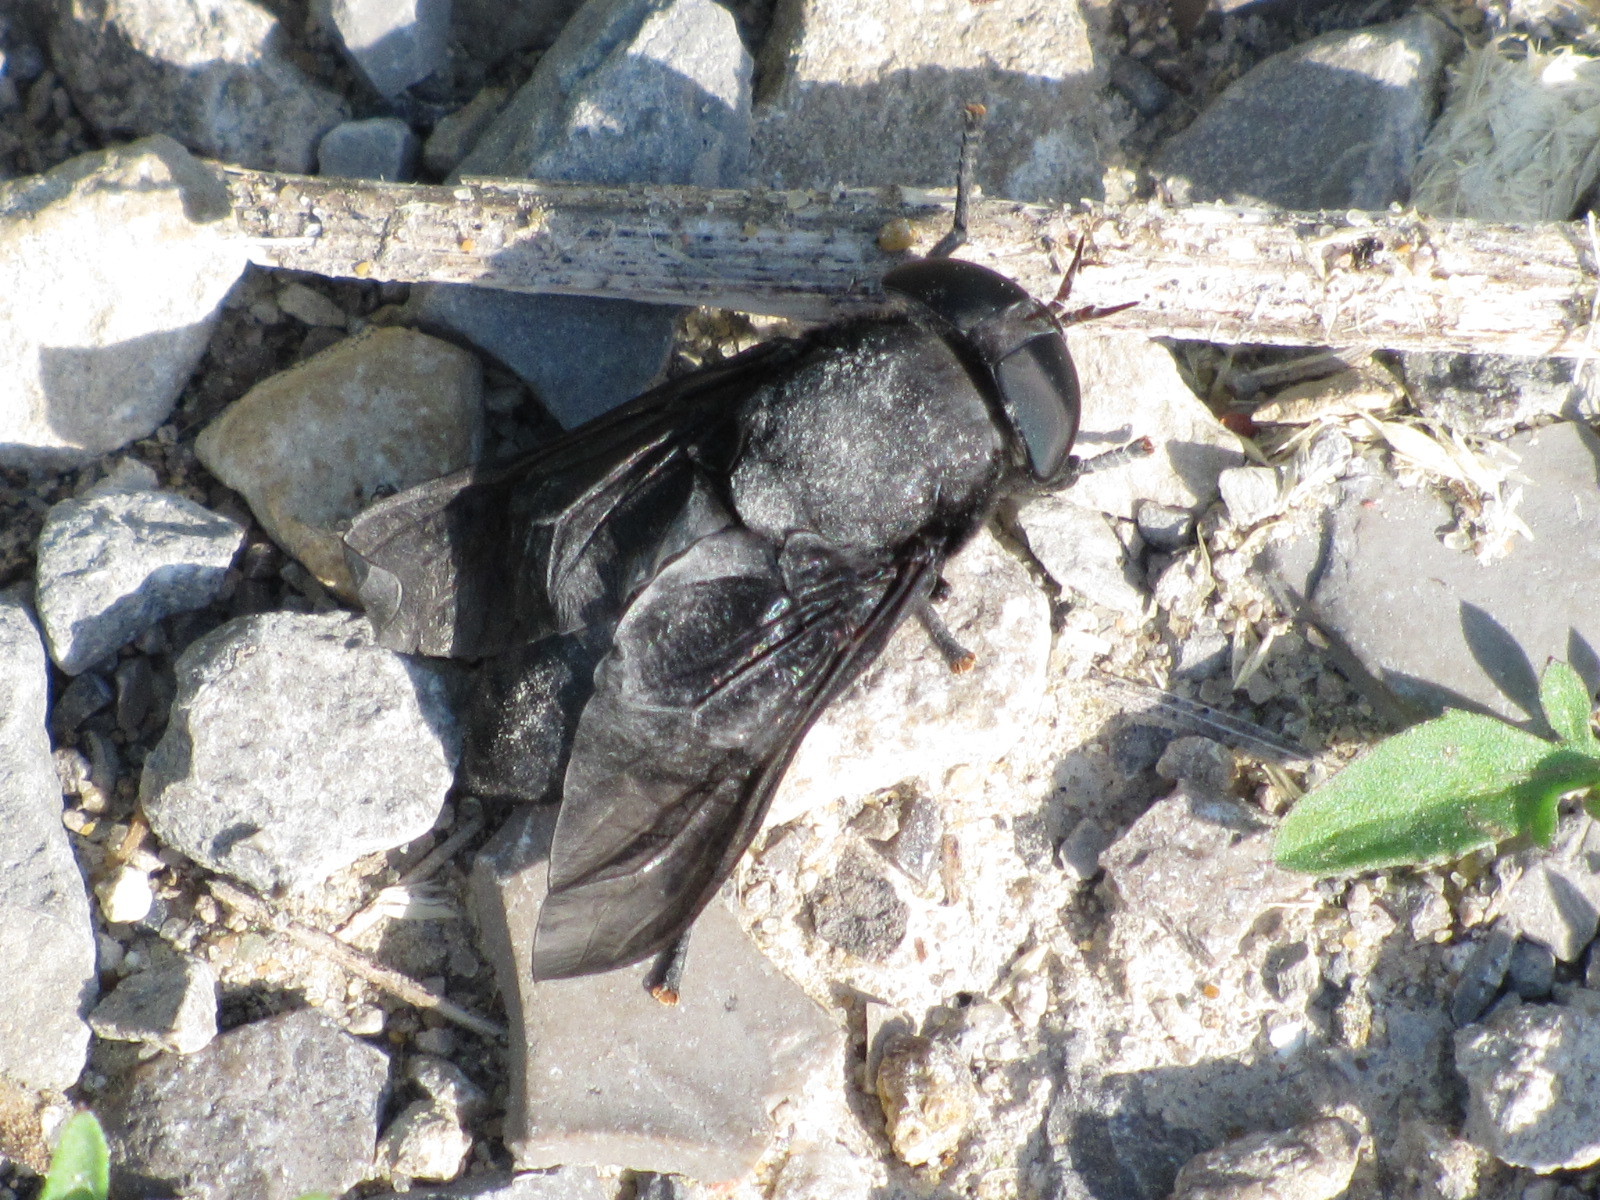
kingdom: Animalia
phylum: Arthropoda
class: Insecta
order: Diptera
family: Tabanidae
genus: Tabanus
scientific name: Tabanus atratus
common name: Black horse fly
